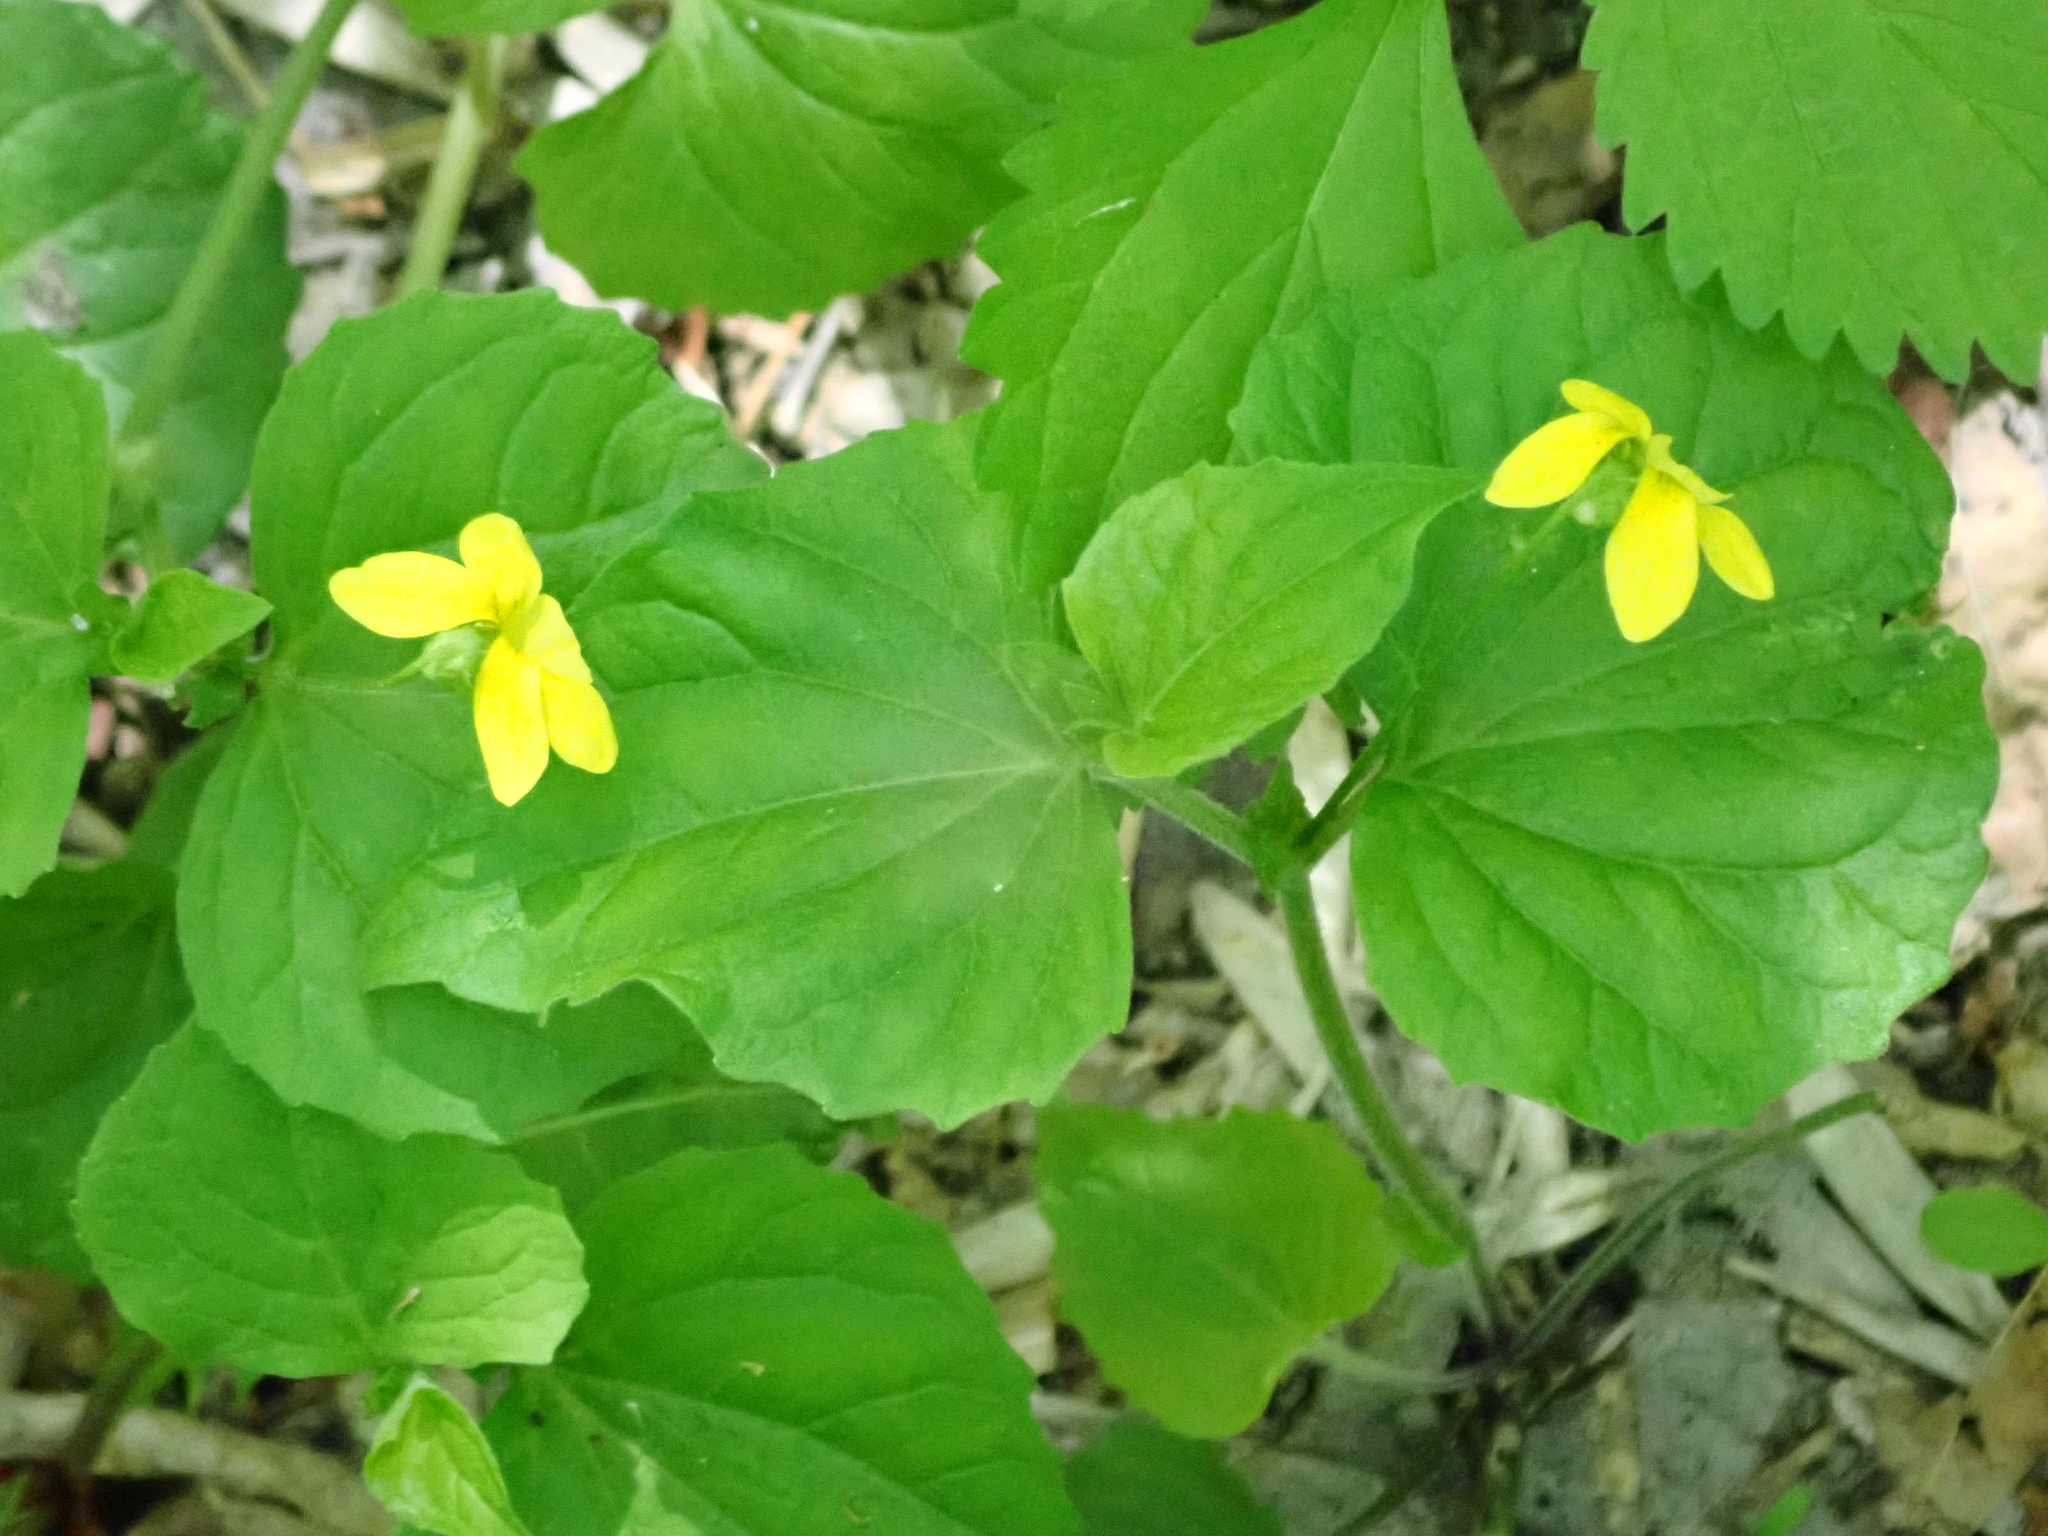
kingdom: Plantae
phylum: Tracheophyta
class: Magnoliopsida
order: Malpighiales
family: Violaceae
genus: Viola
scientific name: Viola eriocarpa
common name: Smooth yellow violet
